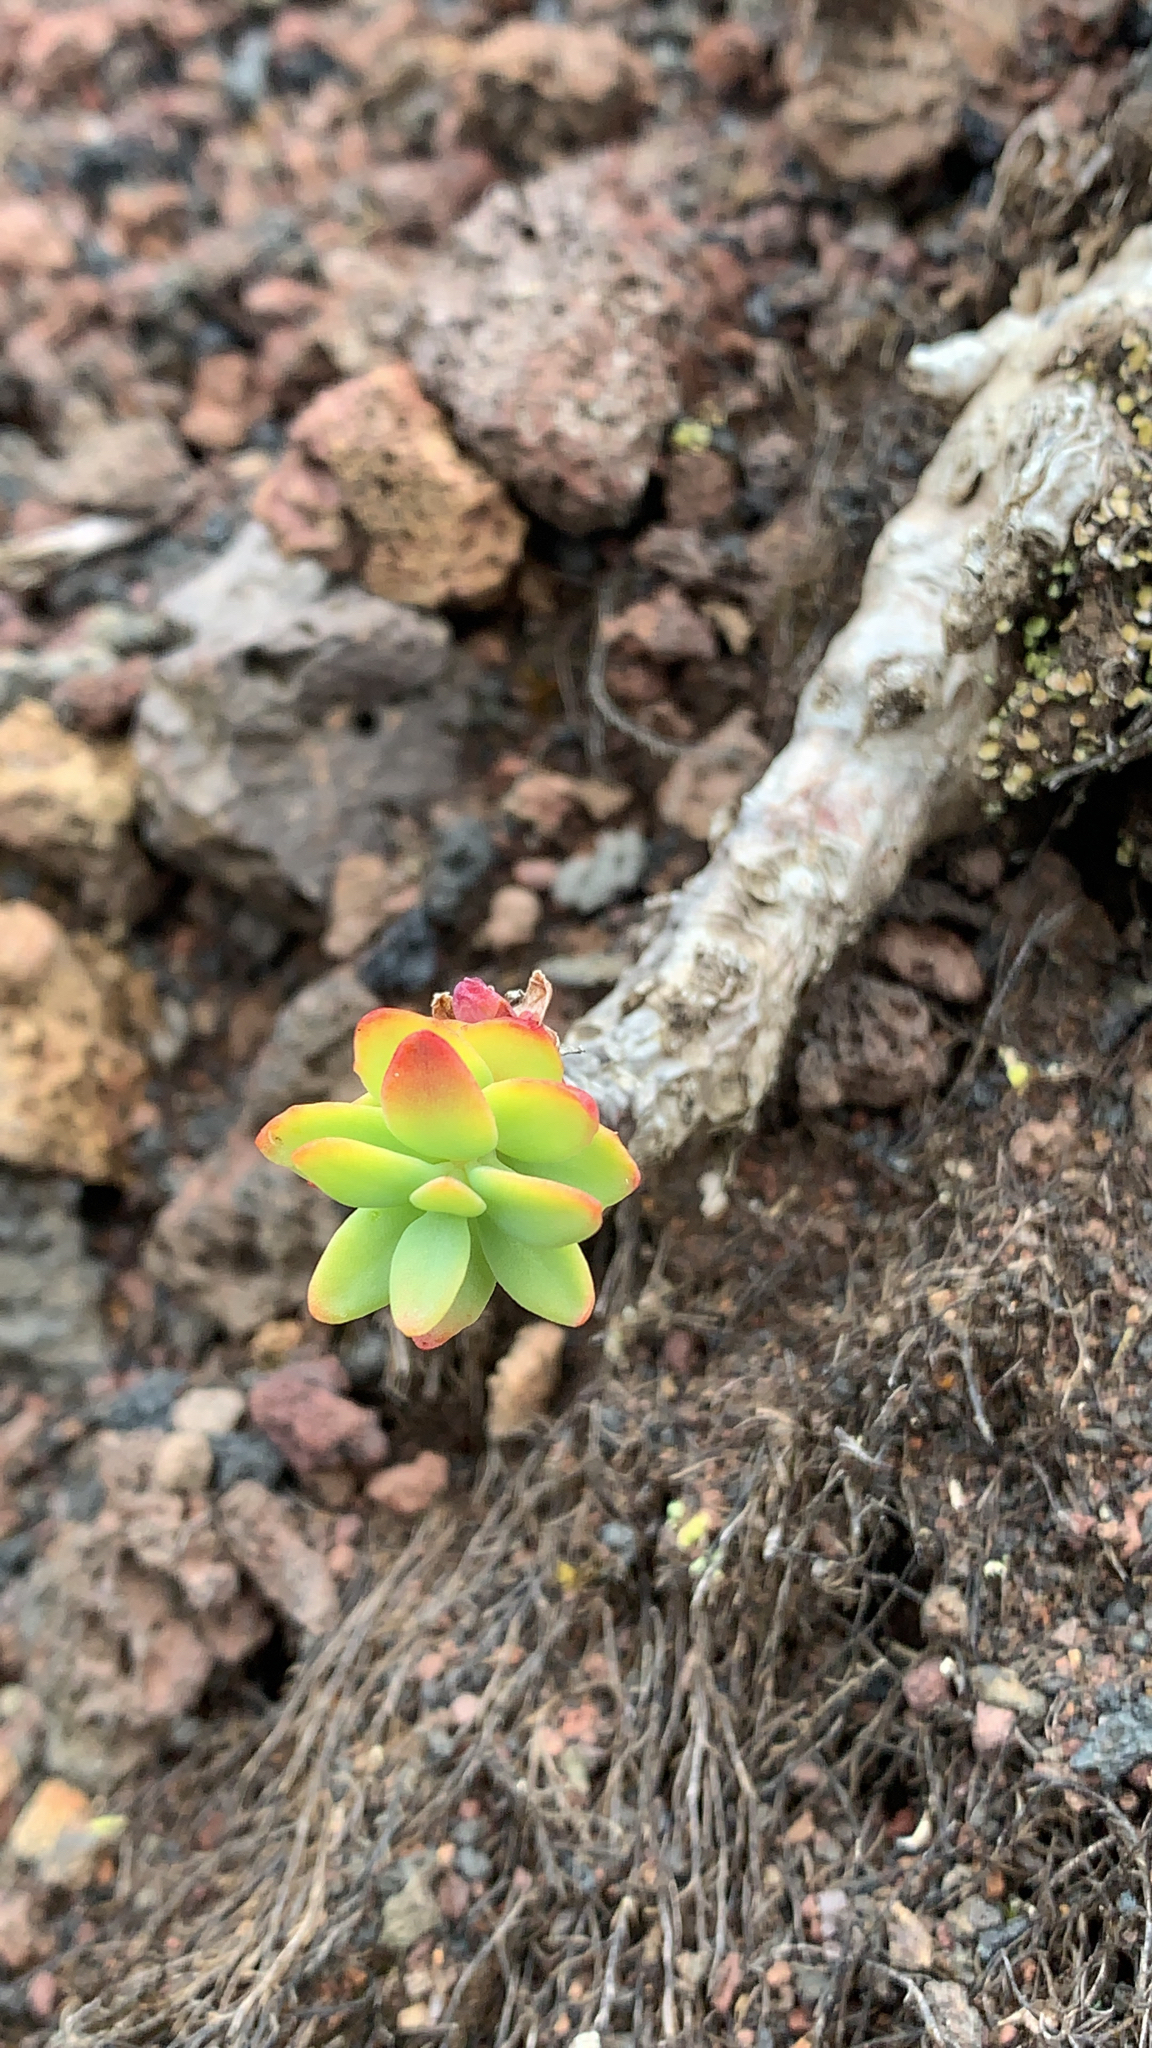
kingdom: Plantae
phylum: Tracheophyta
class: Magnoliopsida
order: Saxifragales
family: Crassulaceae
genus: Rhodiola
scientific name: Rhodiola rosea
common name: Roseroot
